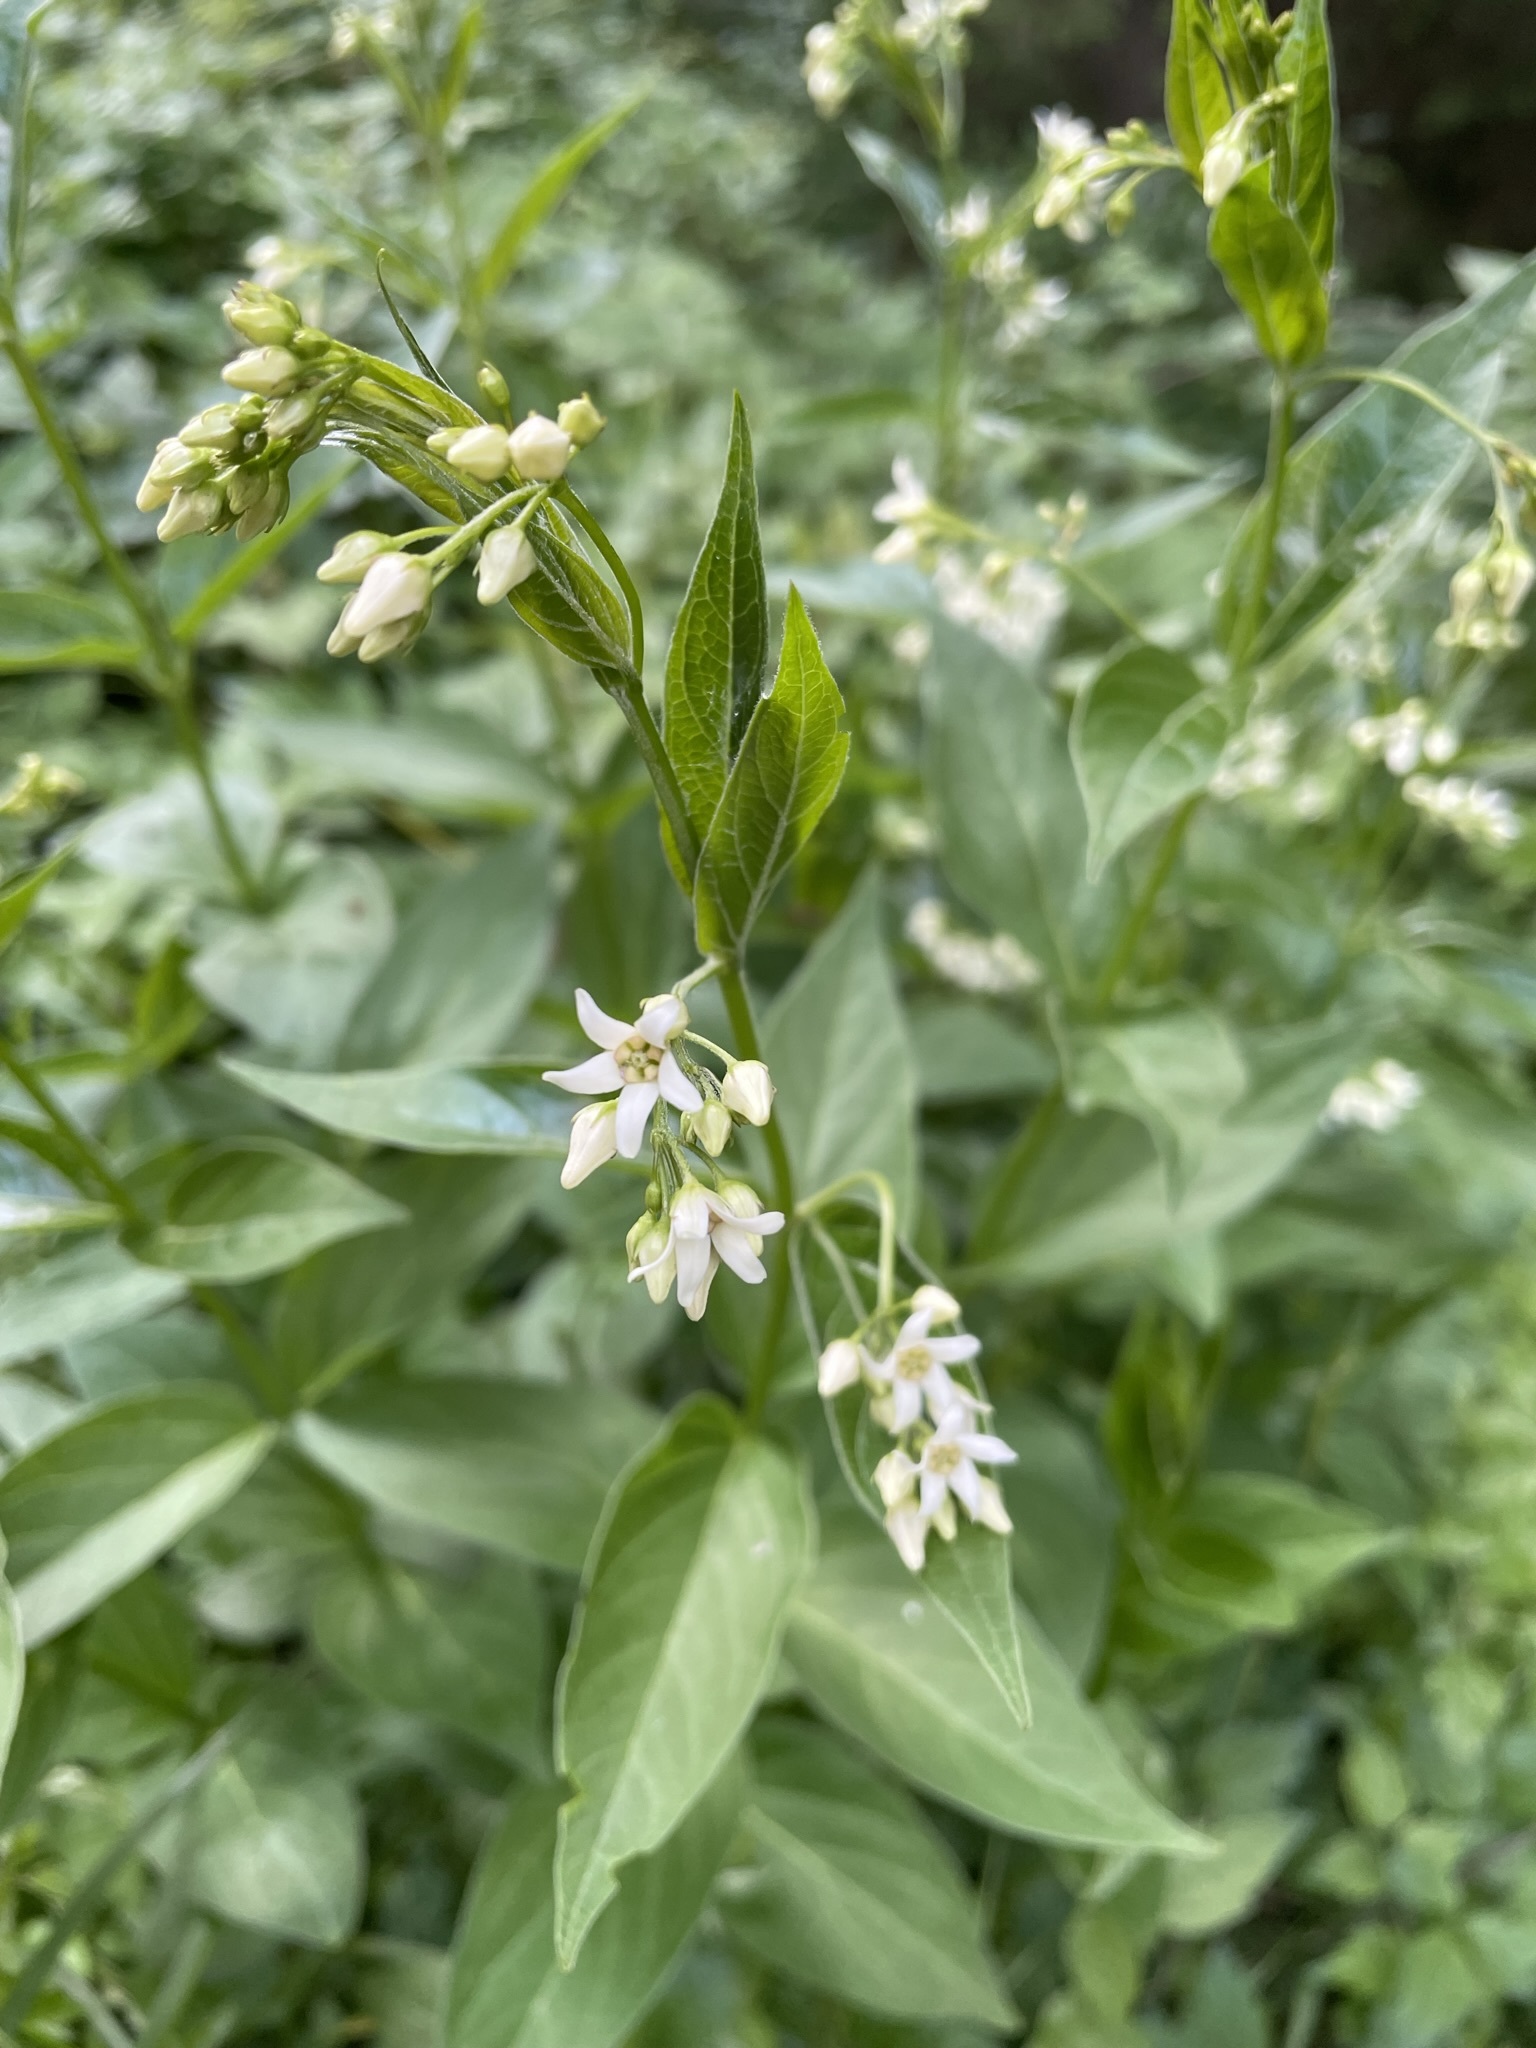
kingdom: Plantae
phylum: Tracheophyta
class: Magnoliopsida
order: Gentianales
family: Apocynaceae
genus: Vincetoxicum
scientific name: Vincetoxicum hirundinaria
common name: White swallowwort
